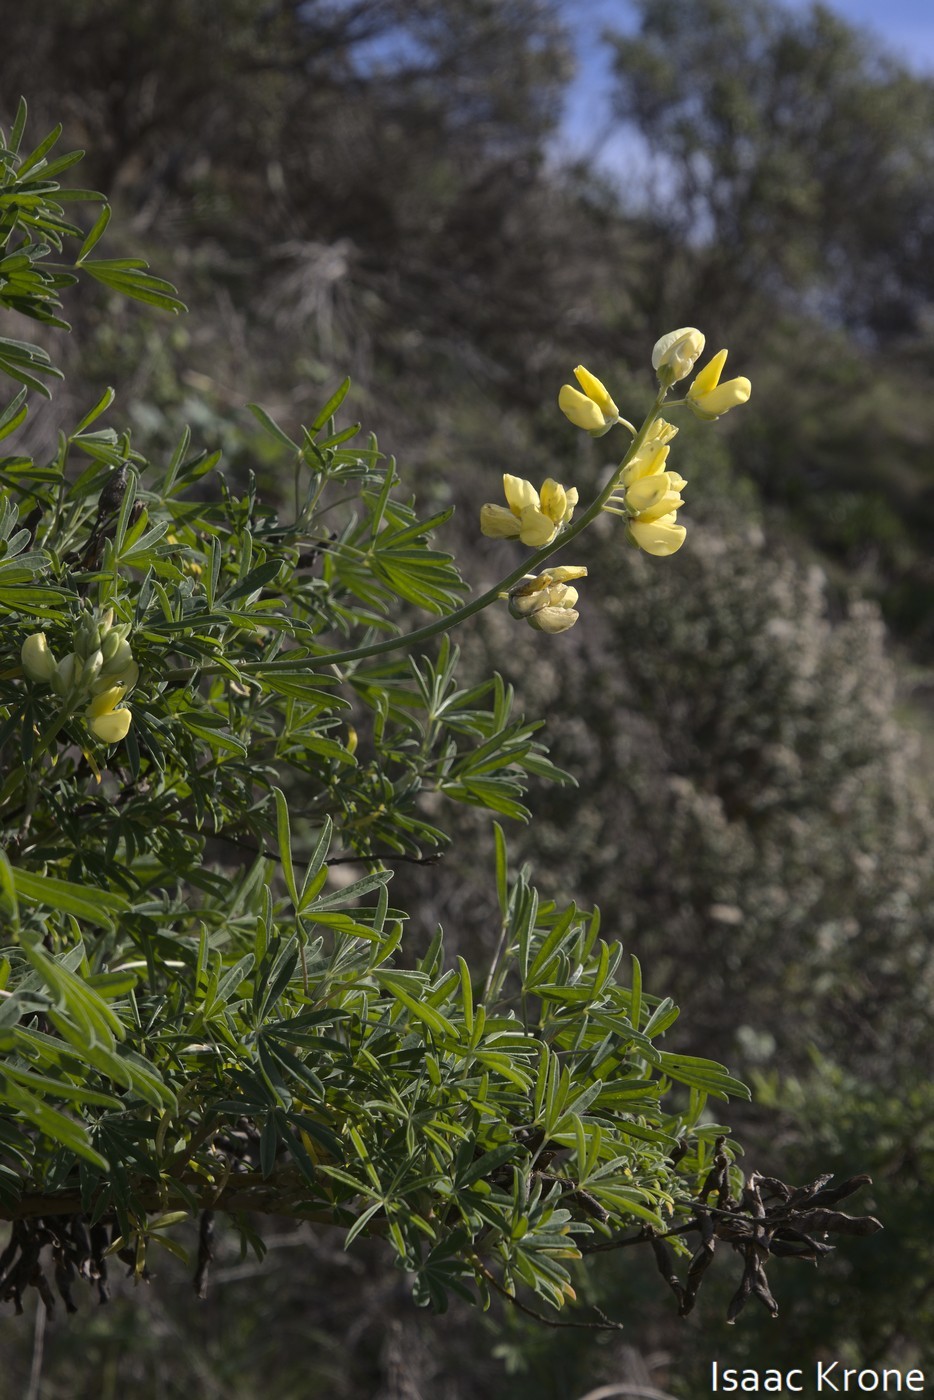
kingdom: Plantae
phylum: Tracheophyta
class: Magnoliopsida
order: Fabales
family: Fabaceae
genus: Lupinus
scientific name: Lupinus arboreus
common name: Yellow bush lupine
